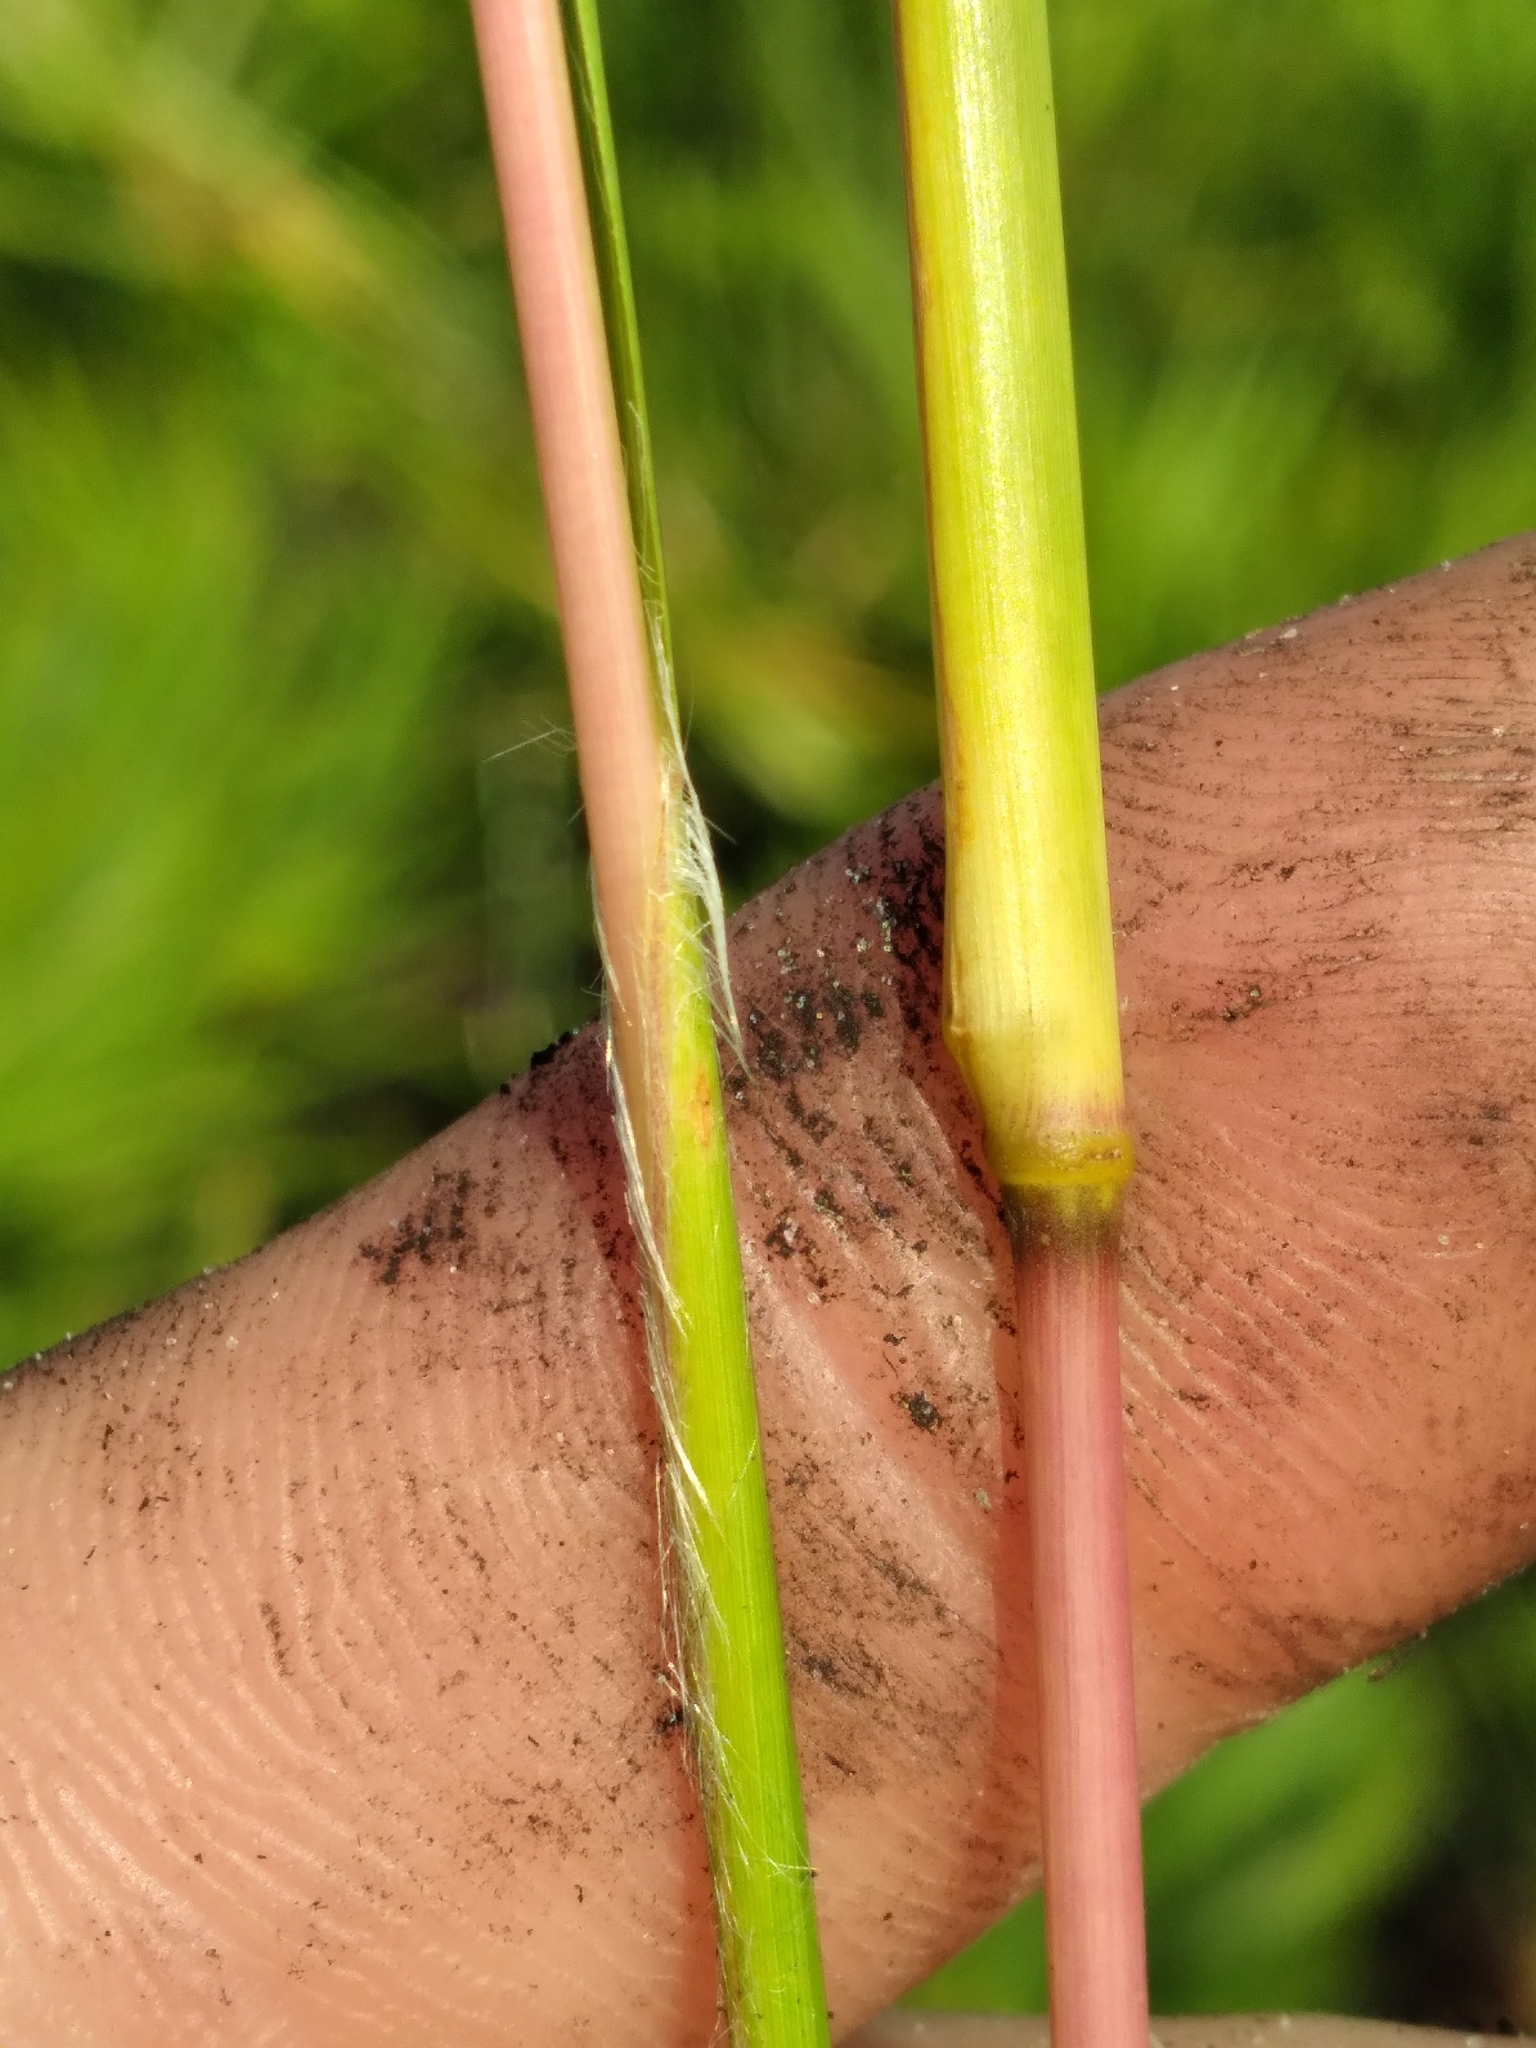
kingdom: Plantae
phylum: Tracheophyta
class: Liliopsida
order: Poales
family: Poaceae
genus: Andropogon
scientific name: Andropogon longiberbis
